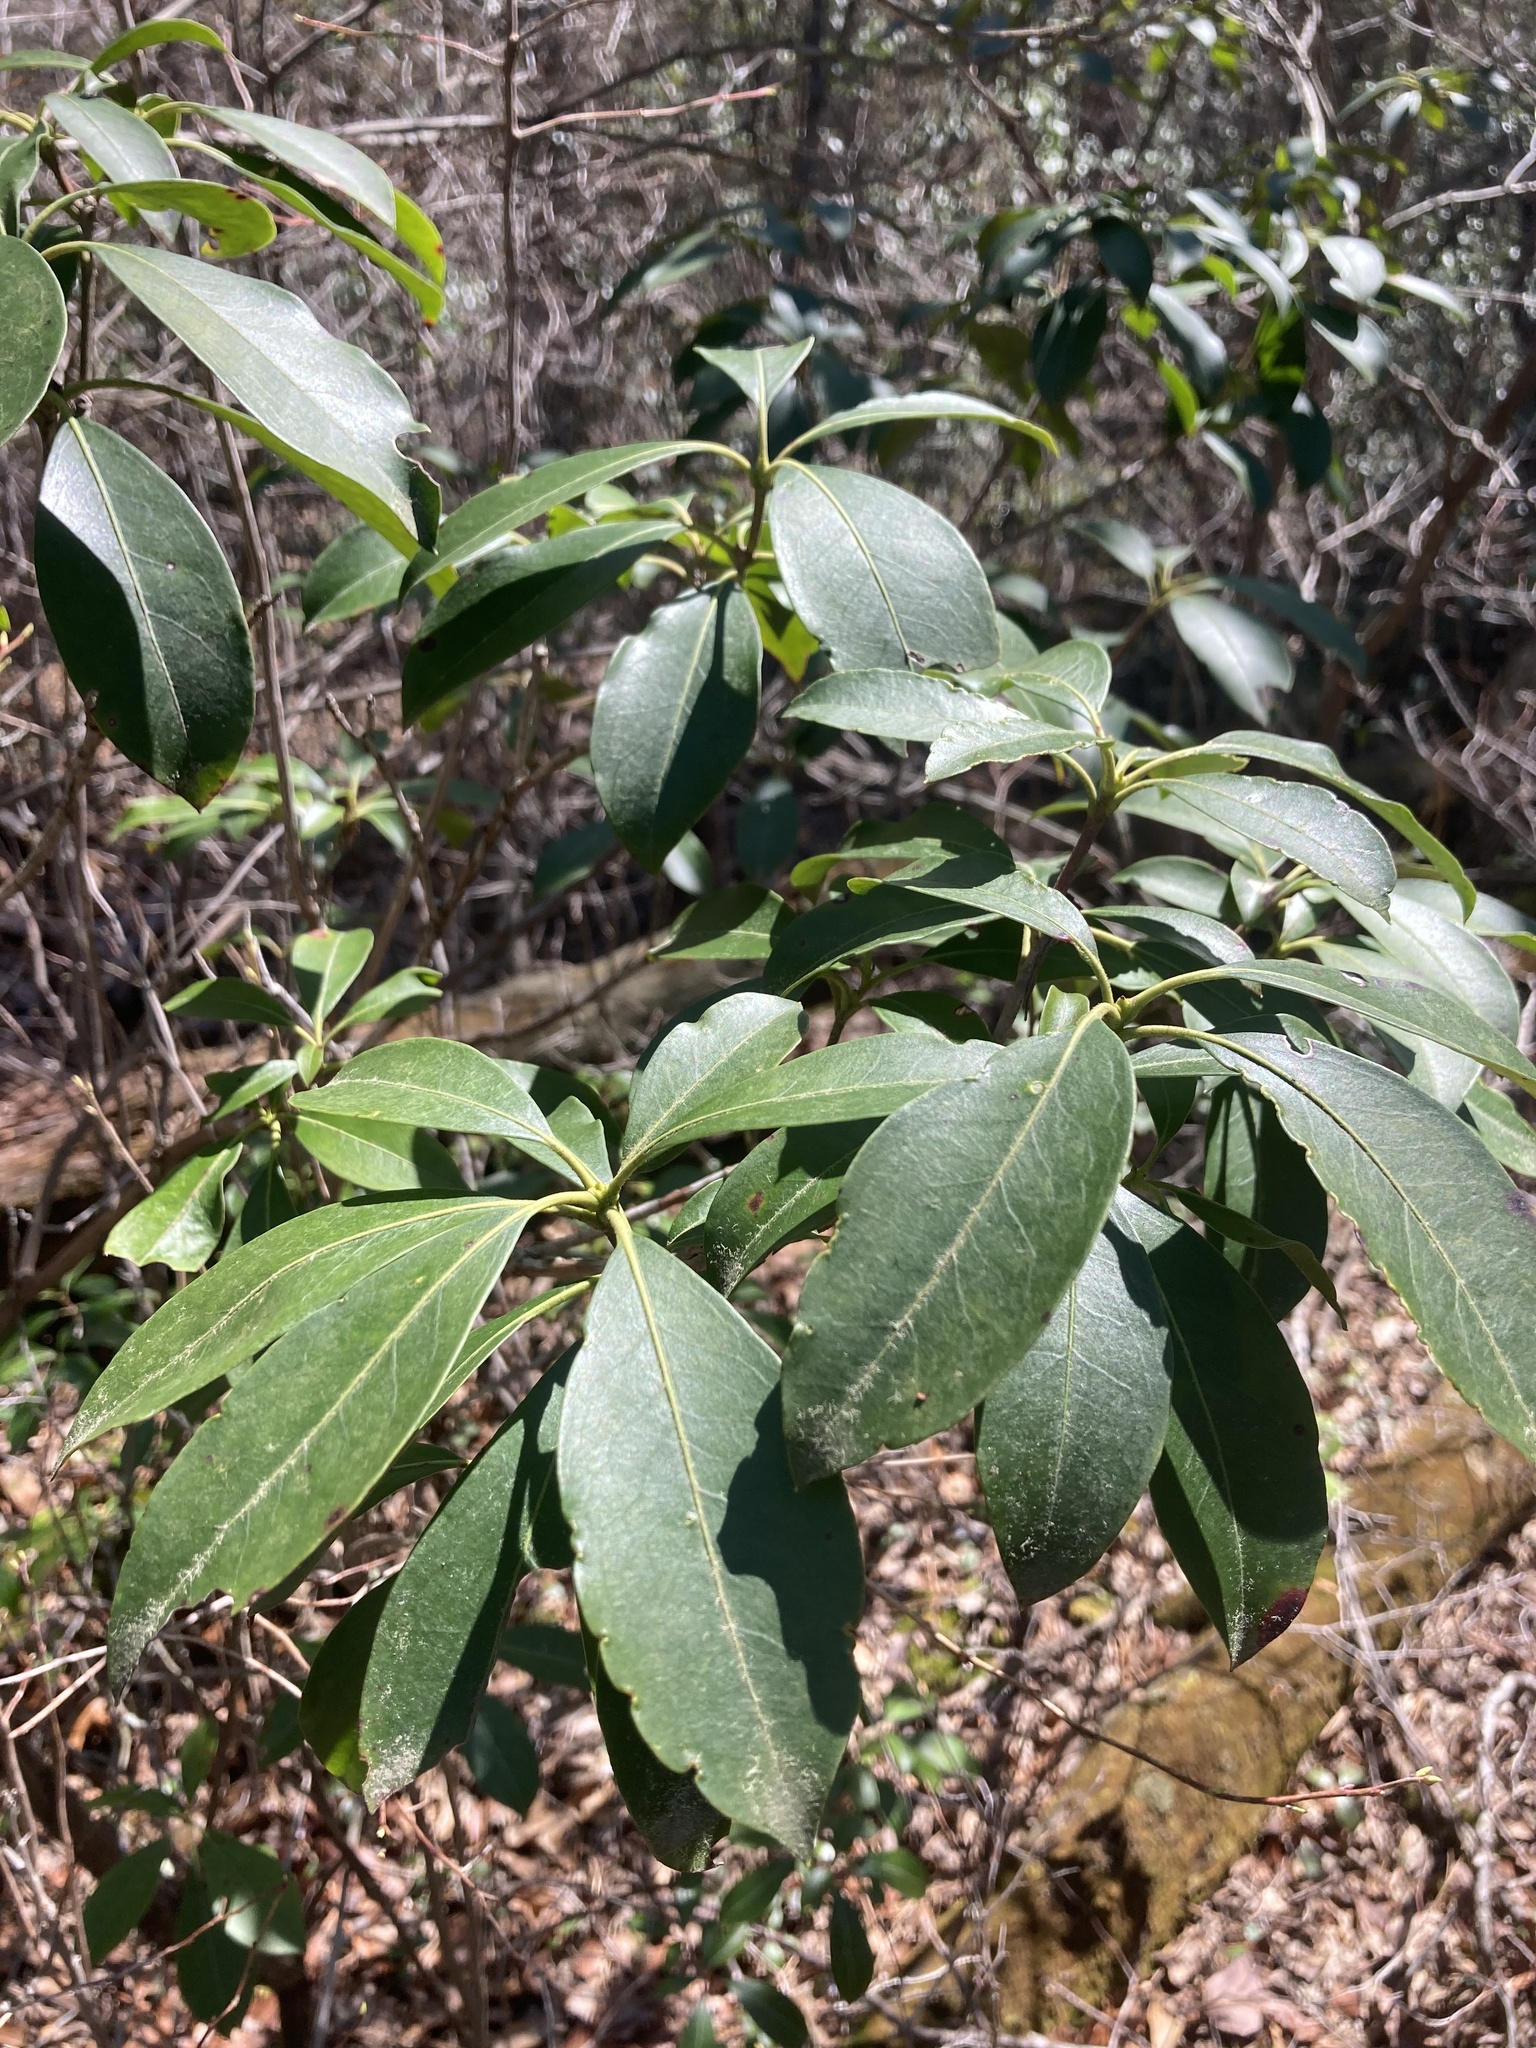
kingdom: Plantae
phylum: Tracheophyta
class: Magnoliopsida
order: Ericales
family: Ericaceae
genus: Kalmia
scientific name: Kalmia latifolia
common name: Mountain-laurel
